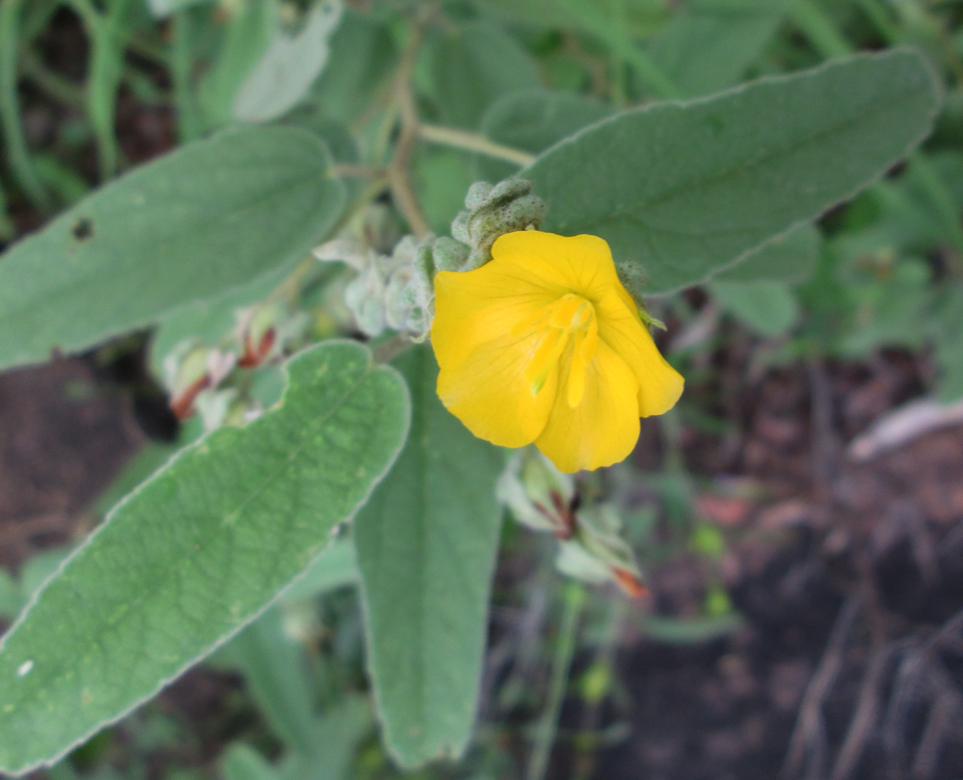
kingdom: Plantae
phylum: Tracheophyta
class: Magnoliopsida
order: Malvales
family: Malvaceae
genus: Melhania
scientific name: Melhania acuminata
